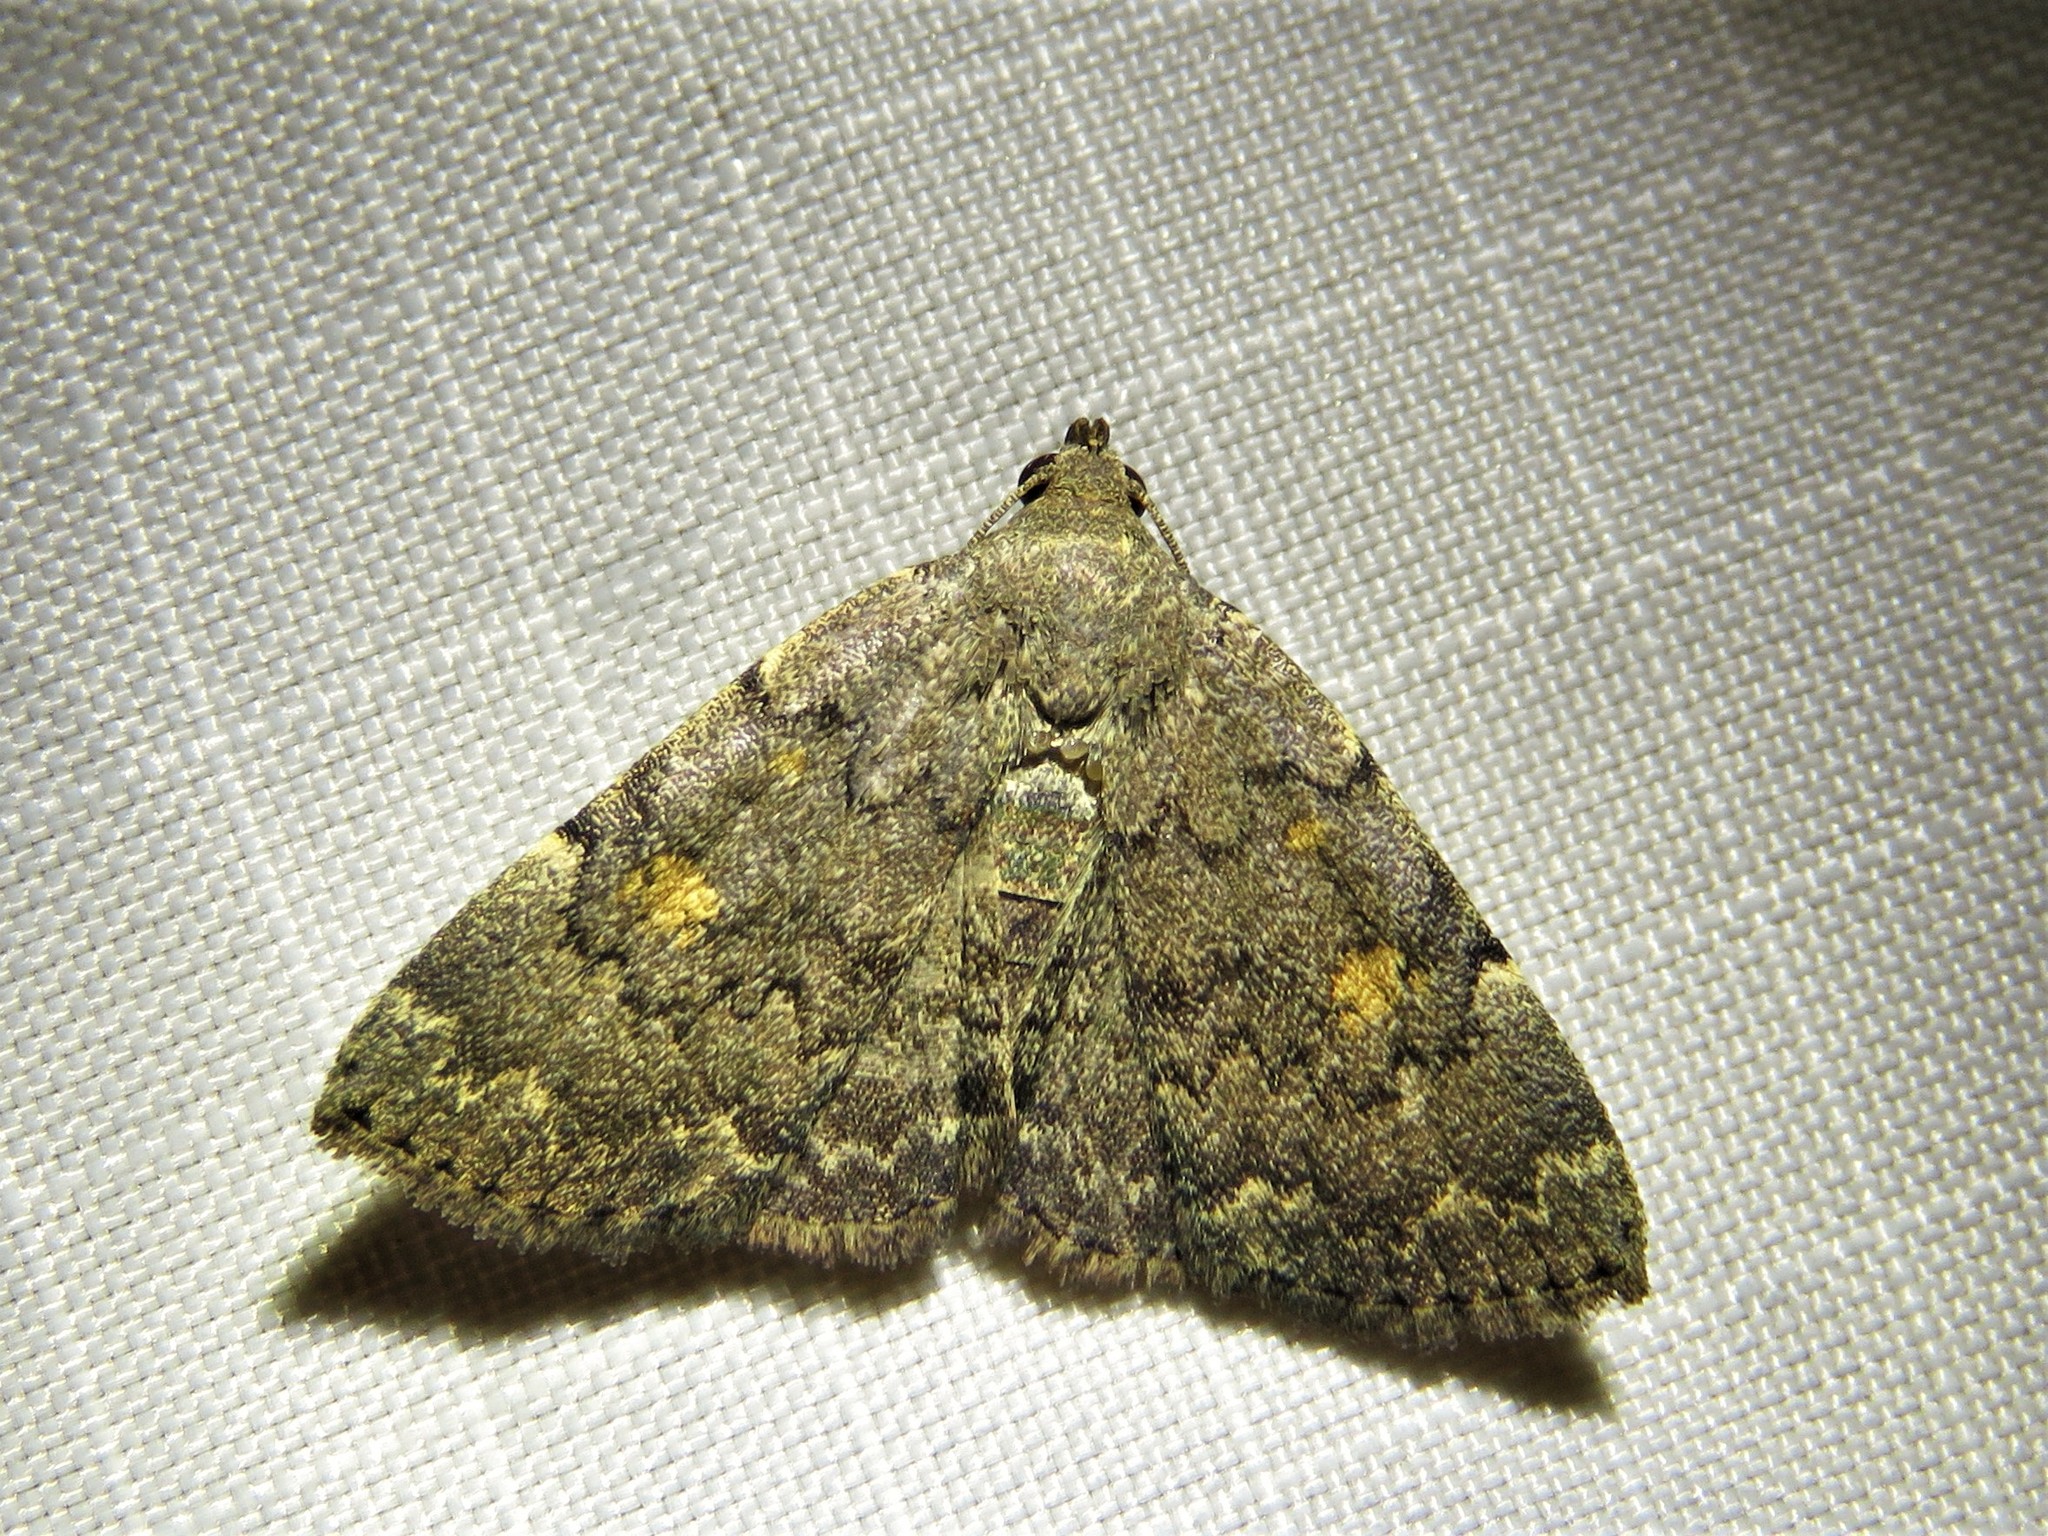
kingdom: Animalia
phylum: Arthropoda
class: Insecta
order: Lepidoptera
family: Erebidae
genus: Idia
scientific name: Idia aemula
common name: Common idia moth
